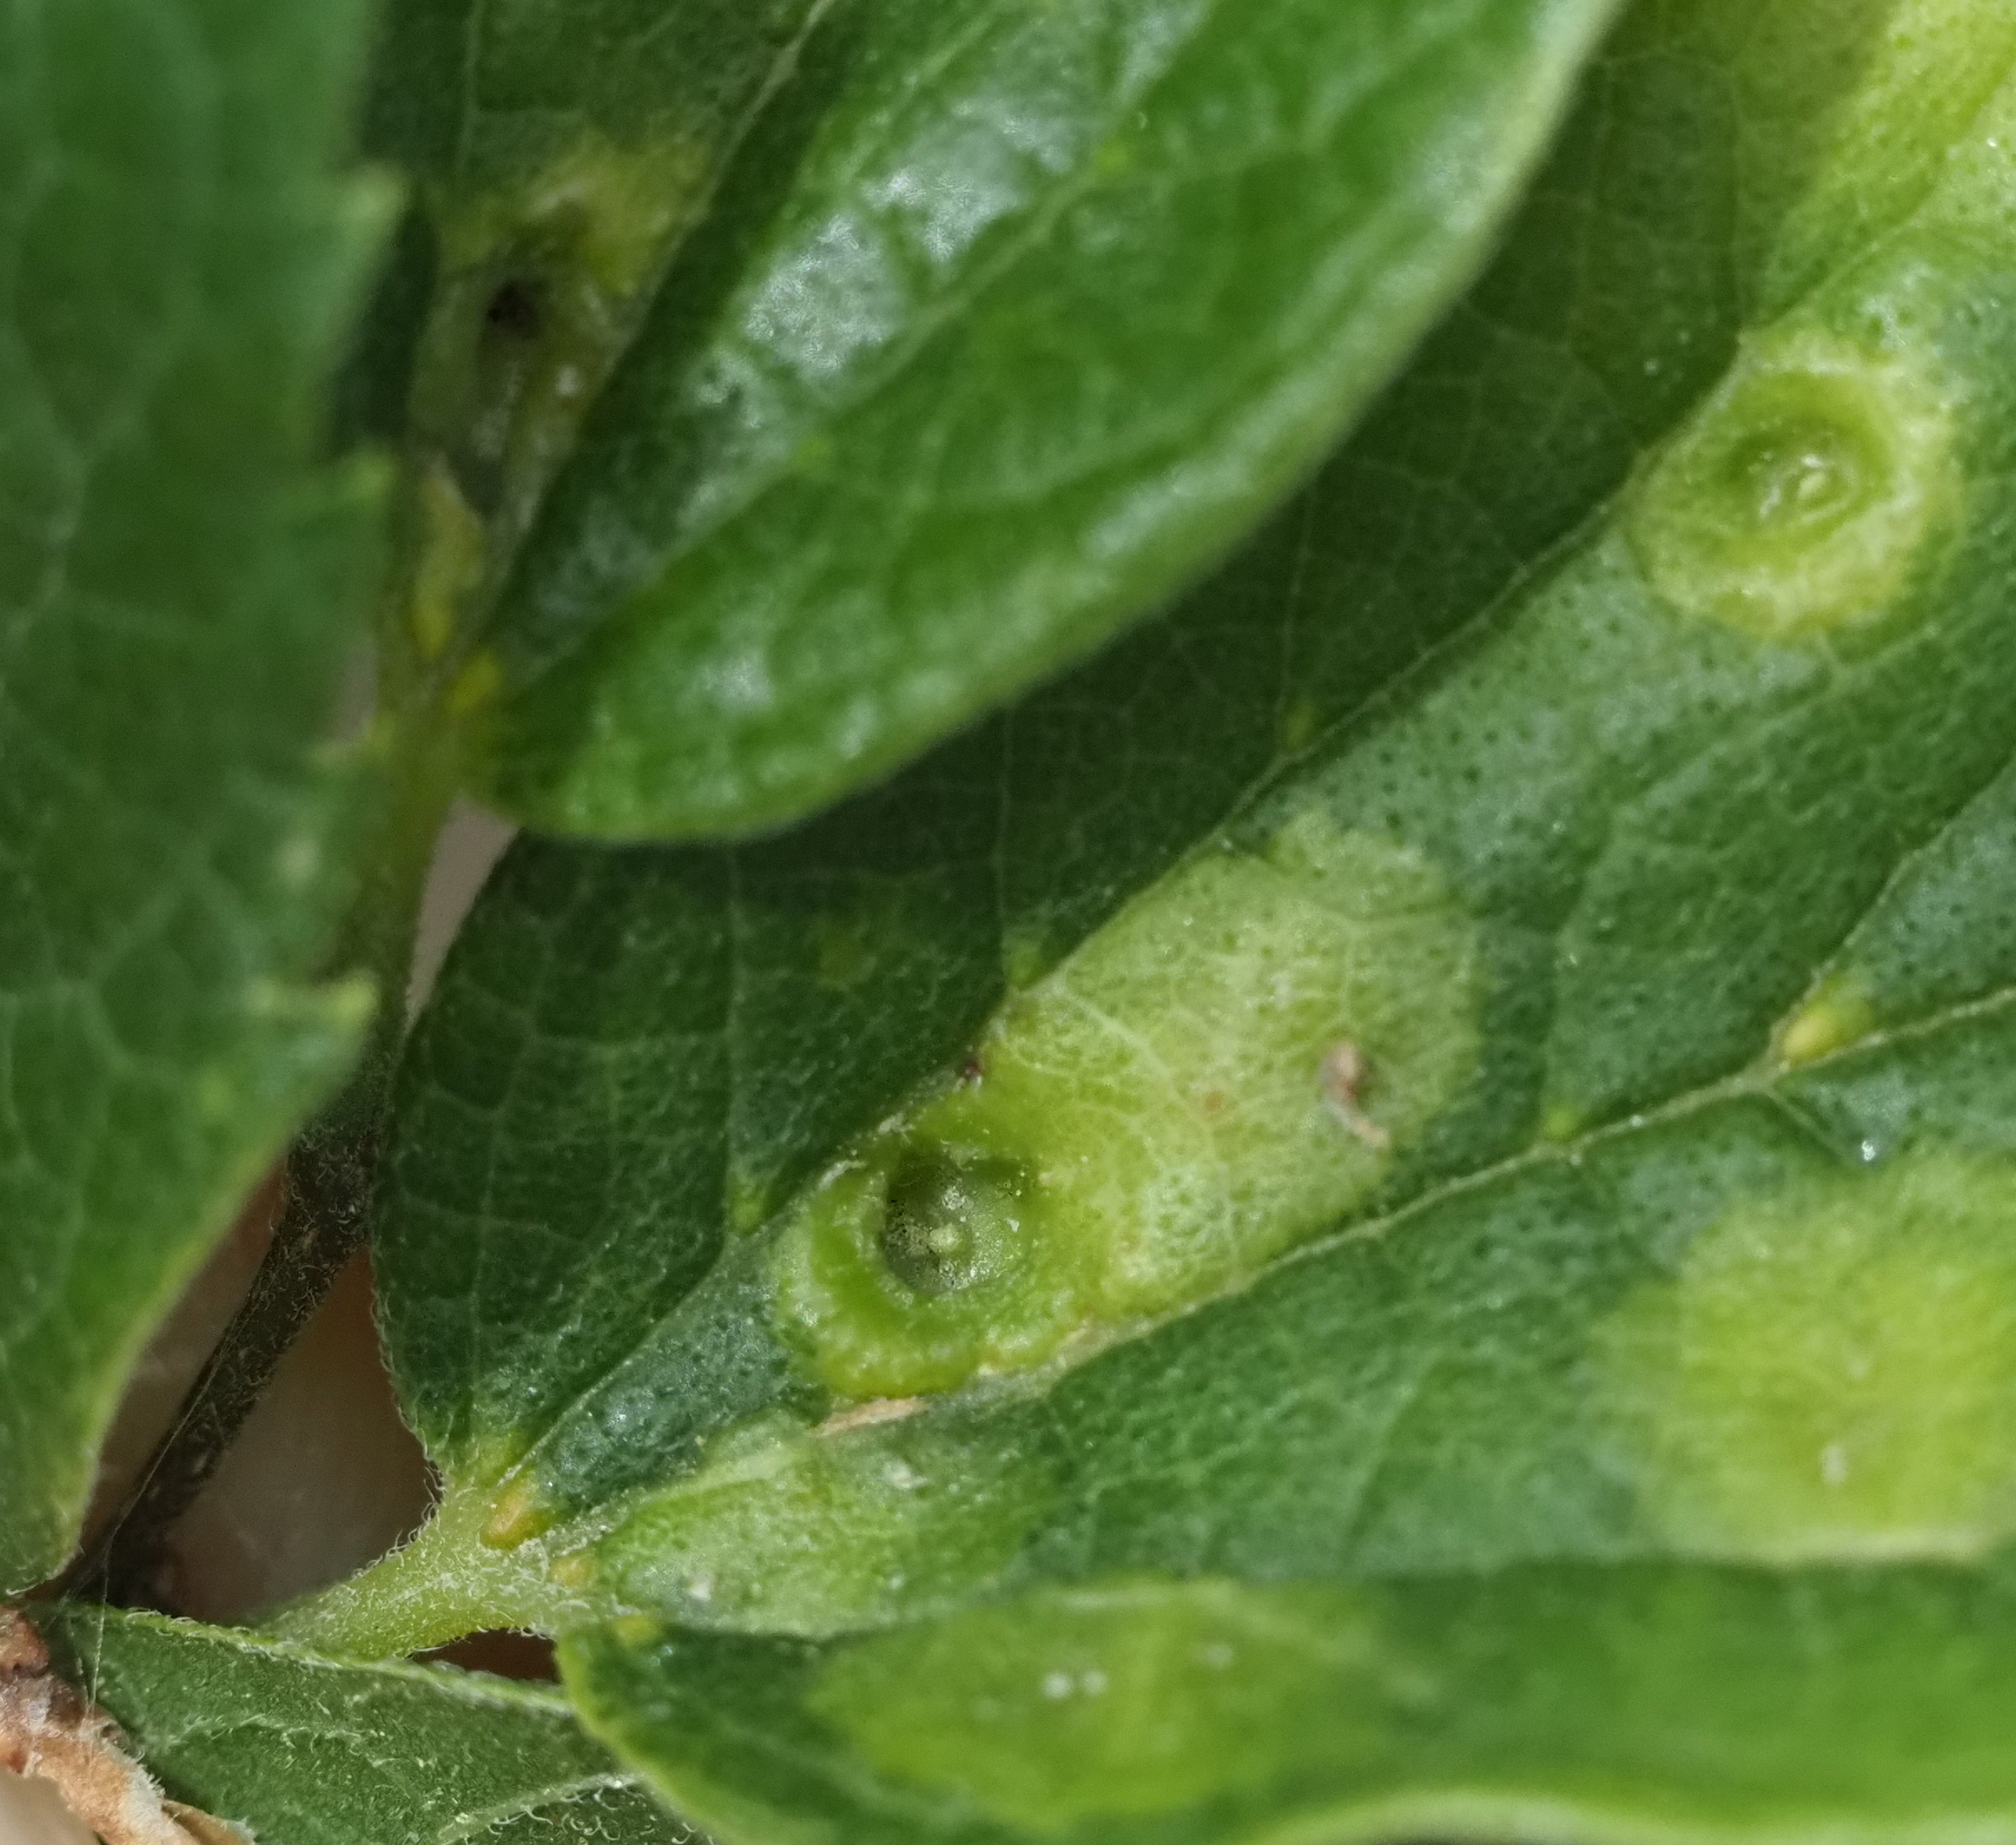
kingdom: Animalia
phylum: Arthropoda
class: Insecta
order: Hemiptera
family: Aphalaridae
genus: Pachypsylla
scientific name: Pachypsylla celtidismamma
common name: Hackberry nipplegall psyllid
